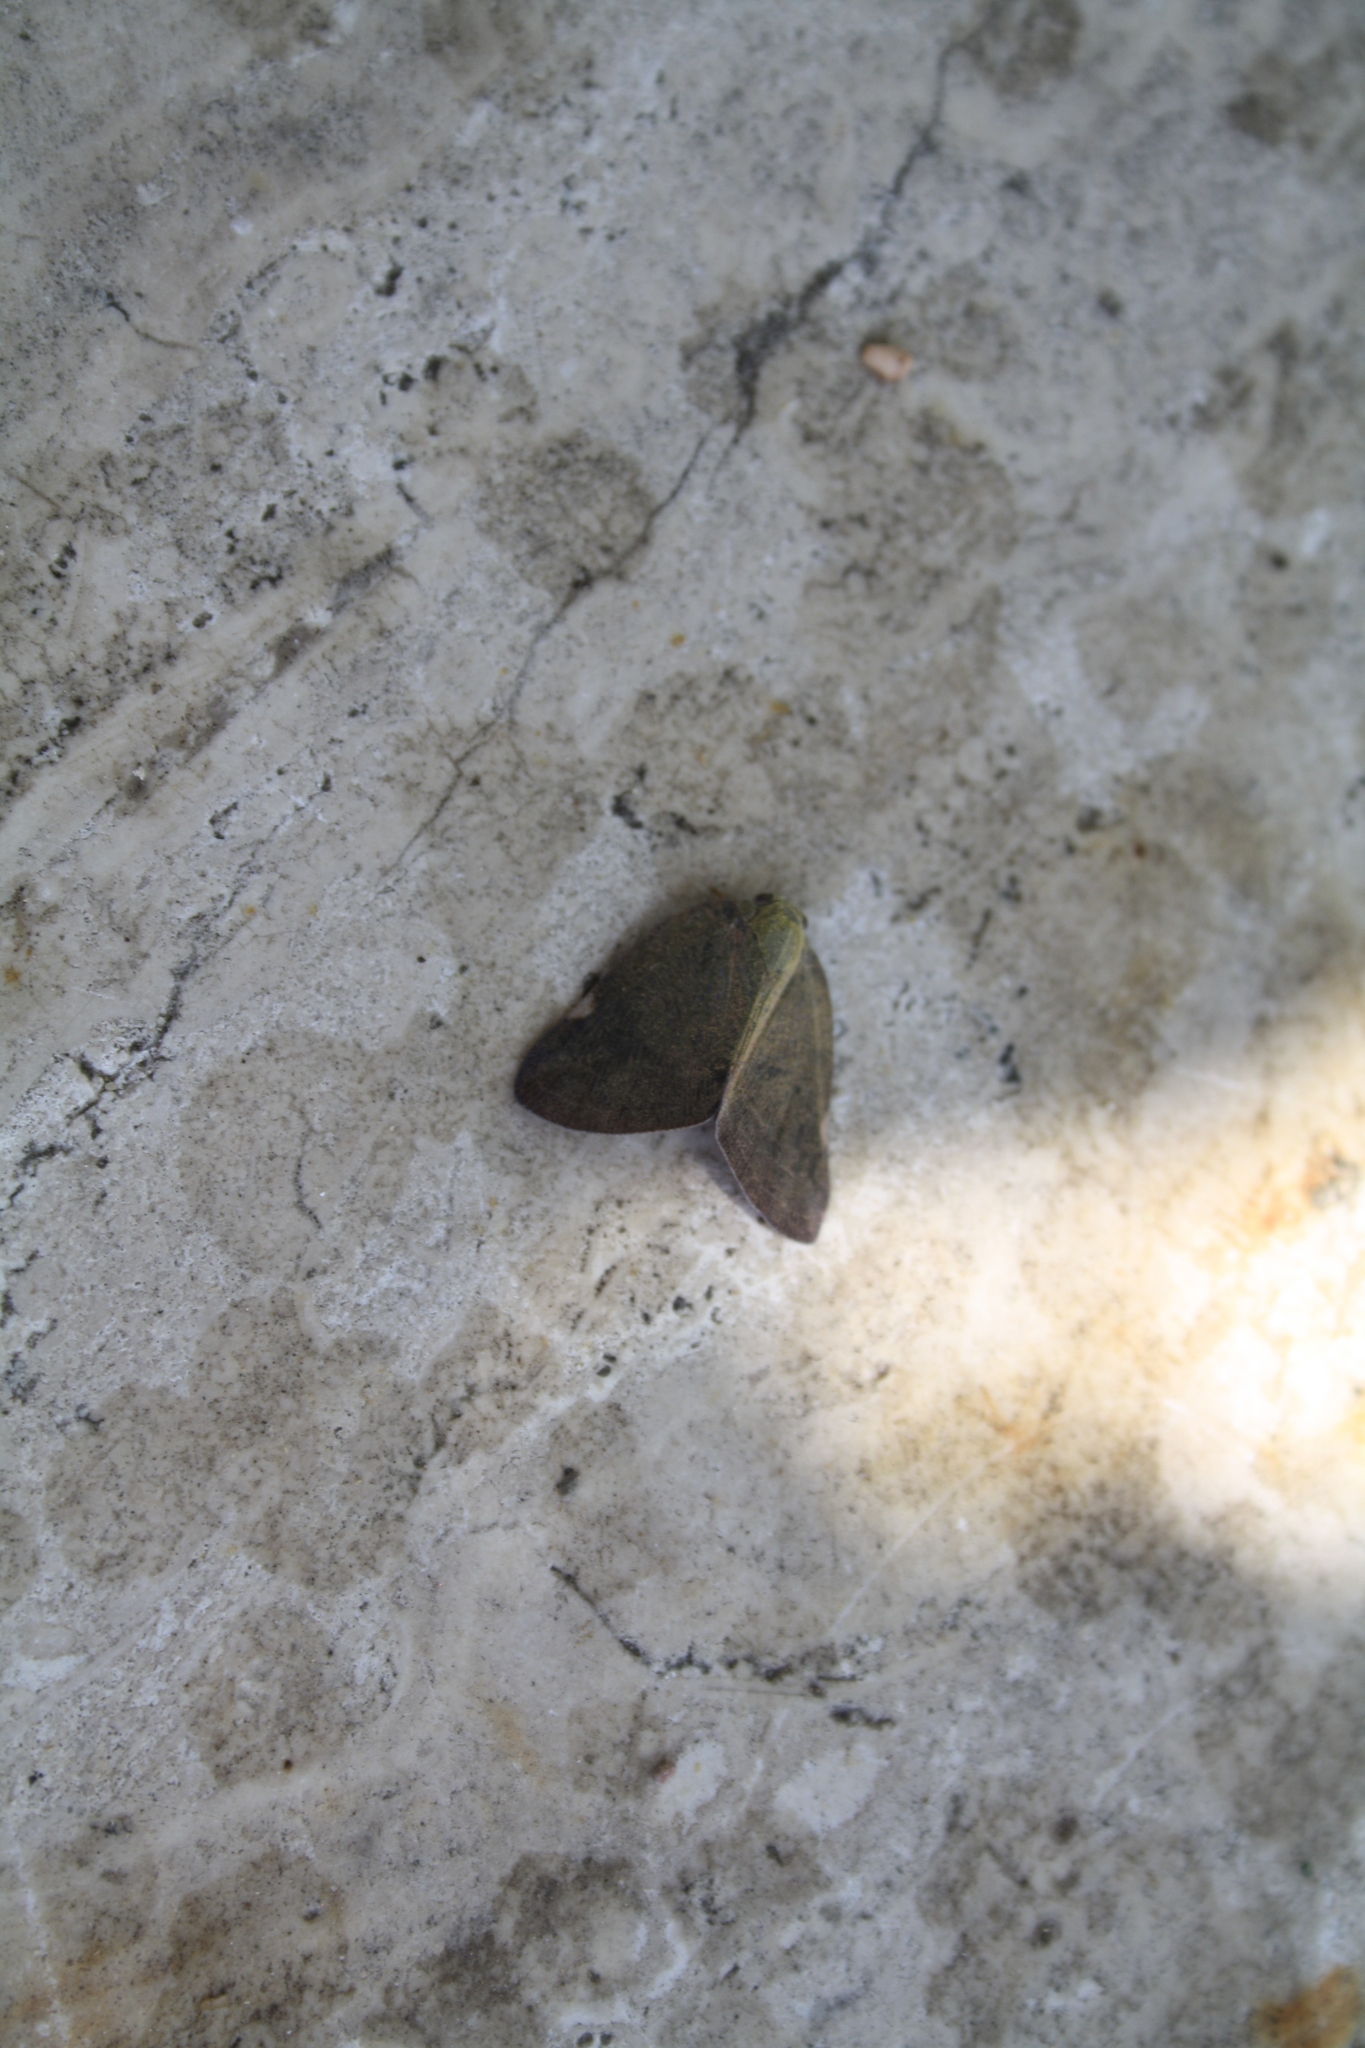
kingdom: Animalia
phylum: Arthropoda
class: Insecta
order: Hemiptera
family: Ricaniidae
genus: Ricania
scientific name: Ricania shantungensis
